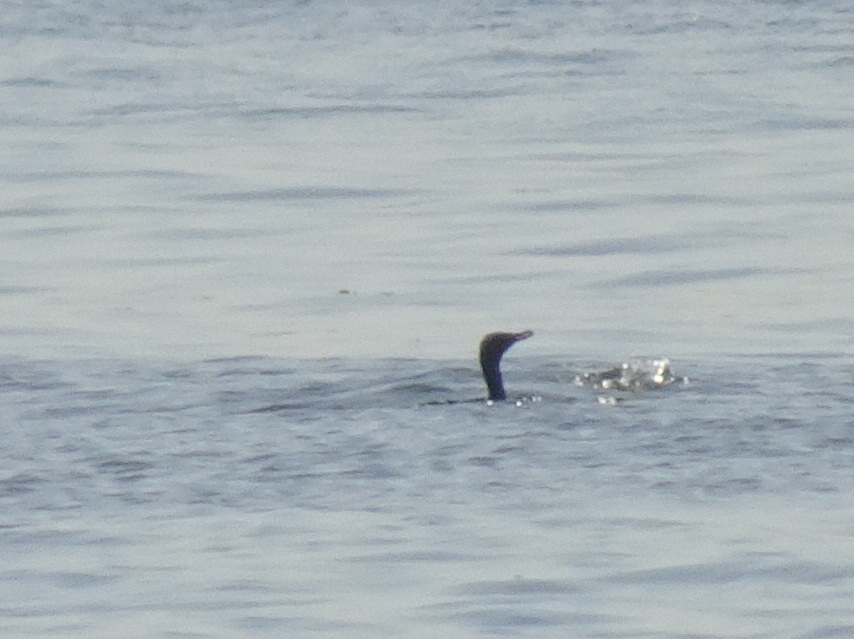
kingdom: Animalia
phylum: Chordata
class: Aves
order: Suliformes
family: Phalacrocoracidae
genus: Phalacrocorax
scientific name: Phalacrocorax auritus
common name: Double-crested cormorant
